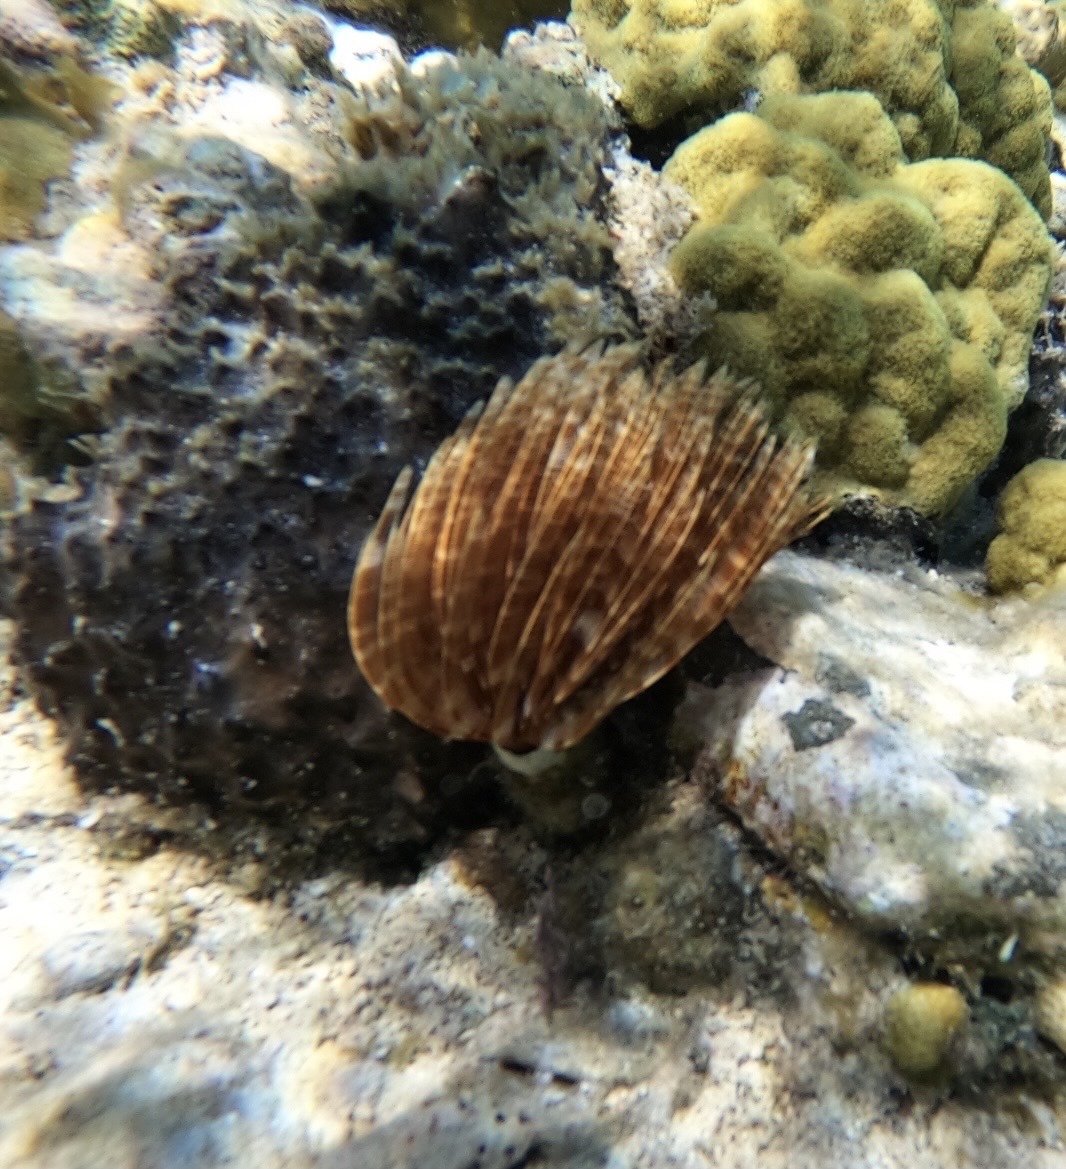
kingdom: Animalia
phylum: Annelida
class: Polychaeta
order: Sabellida
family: Sabellidae
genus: Sabellastarte
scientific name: Sabellastarte magnifica
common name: Giant feather-duster worm
